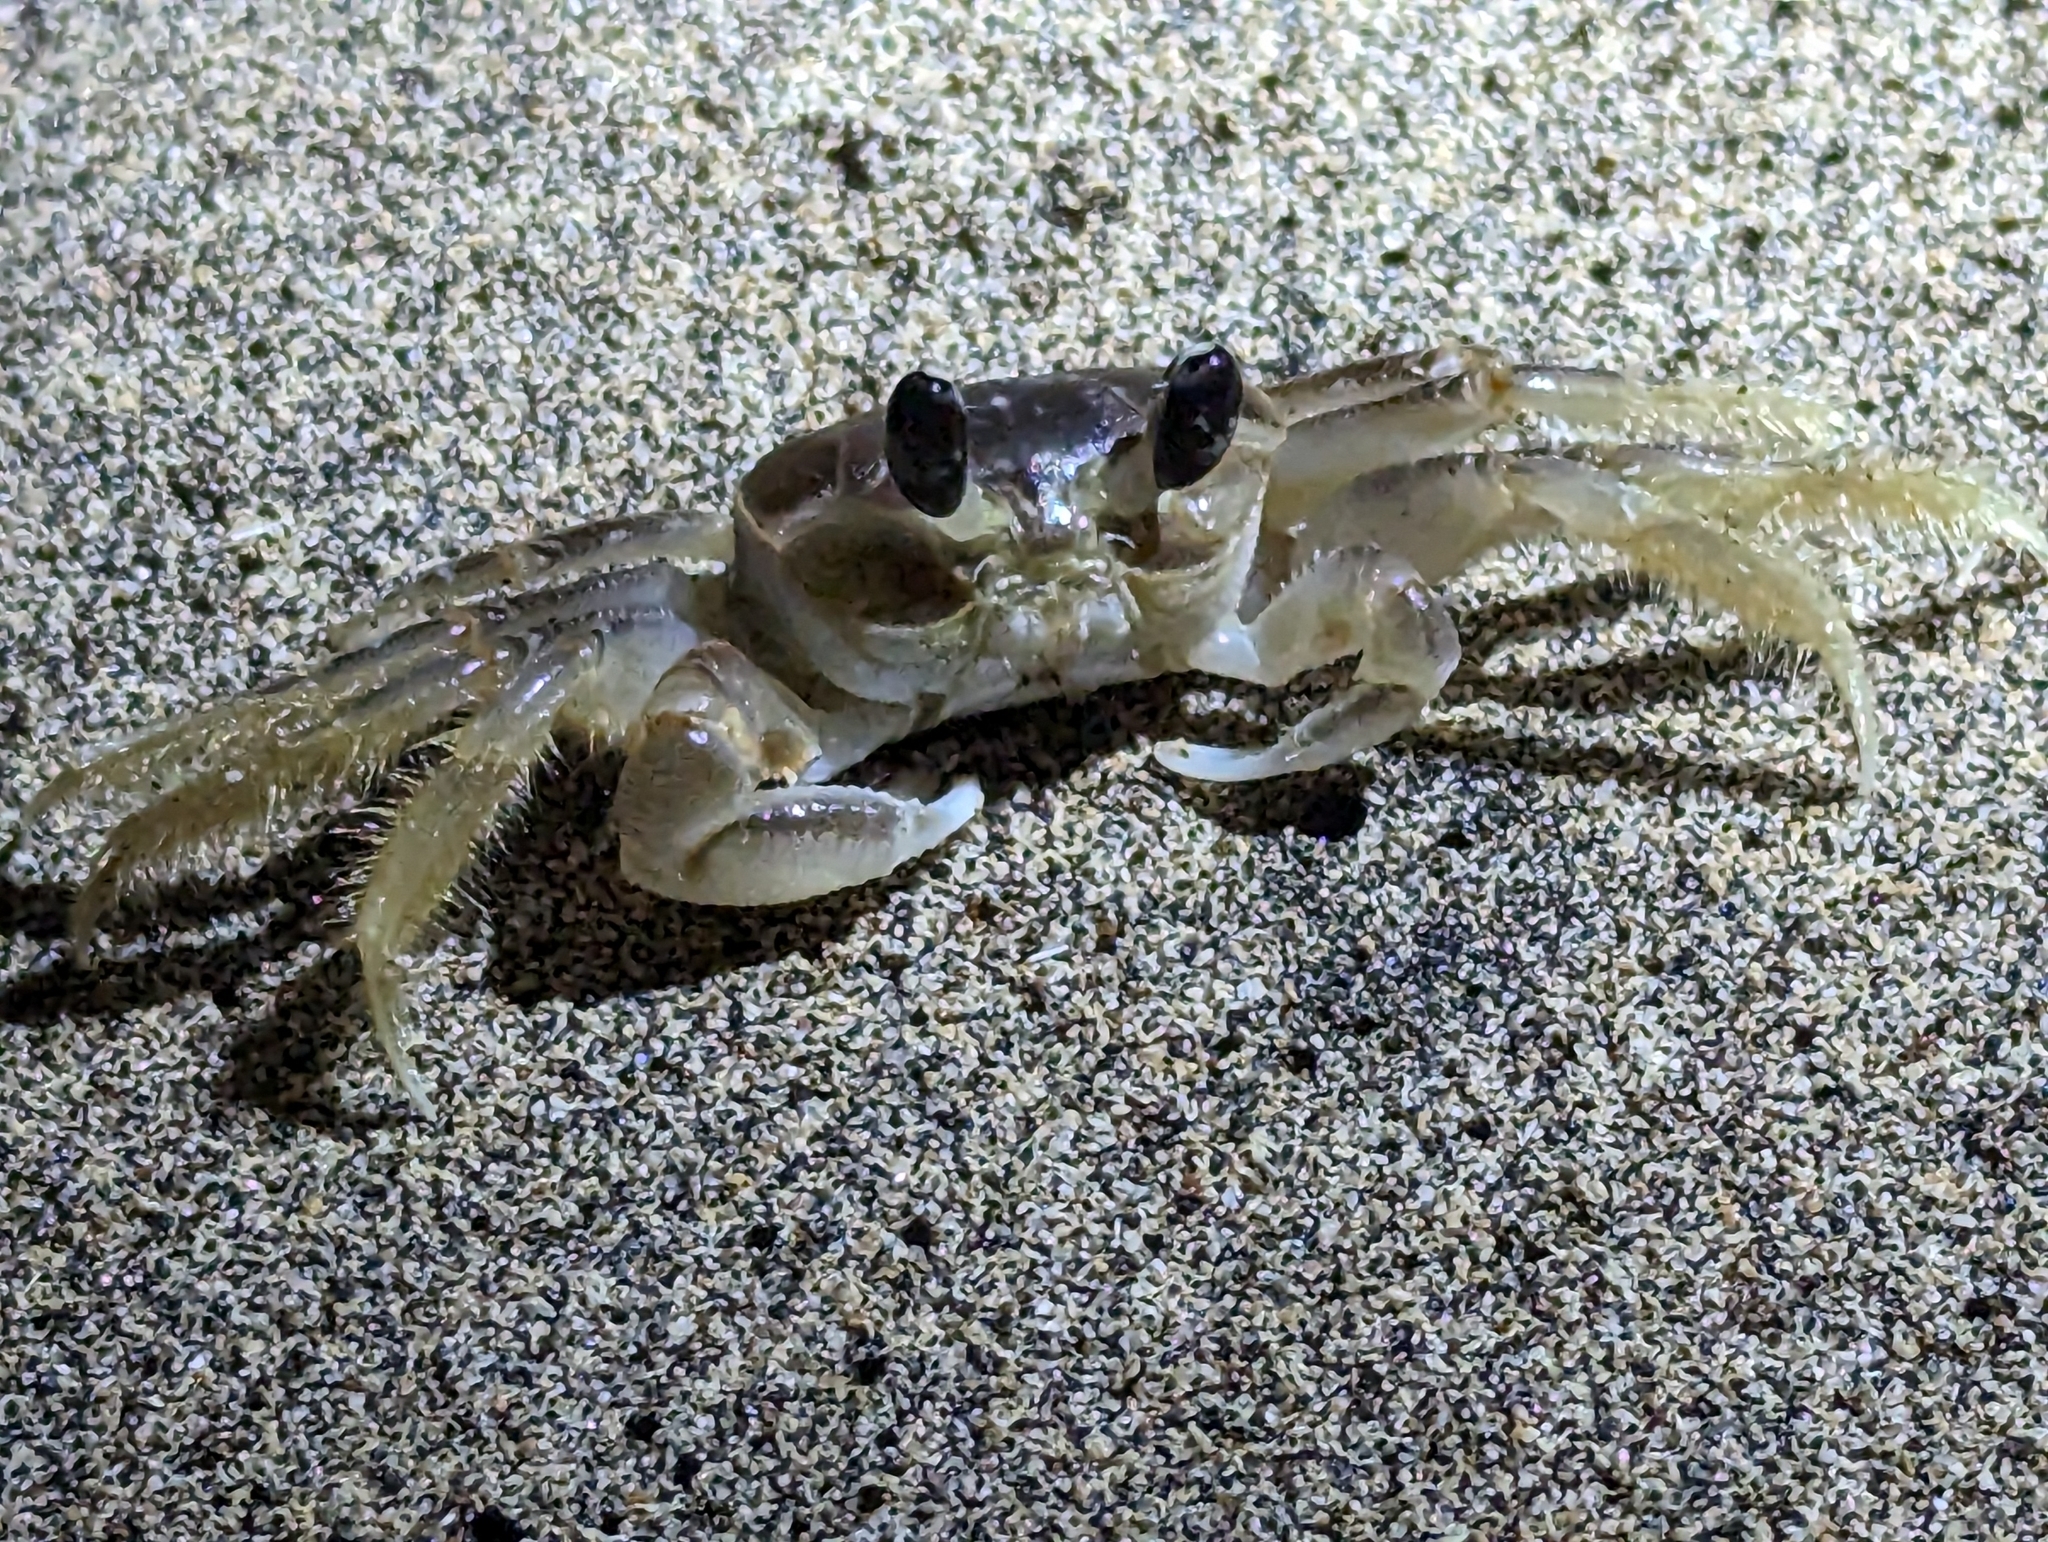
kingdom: Animalia
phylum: Arthropoda
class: Malacostraca
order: Decapoda
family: Ocypodidae
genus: Ocypode
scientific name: Ocypode quadrata
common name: Ghost crab
